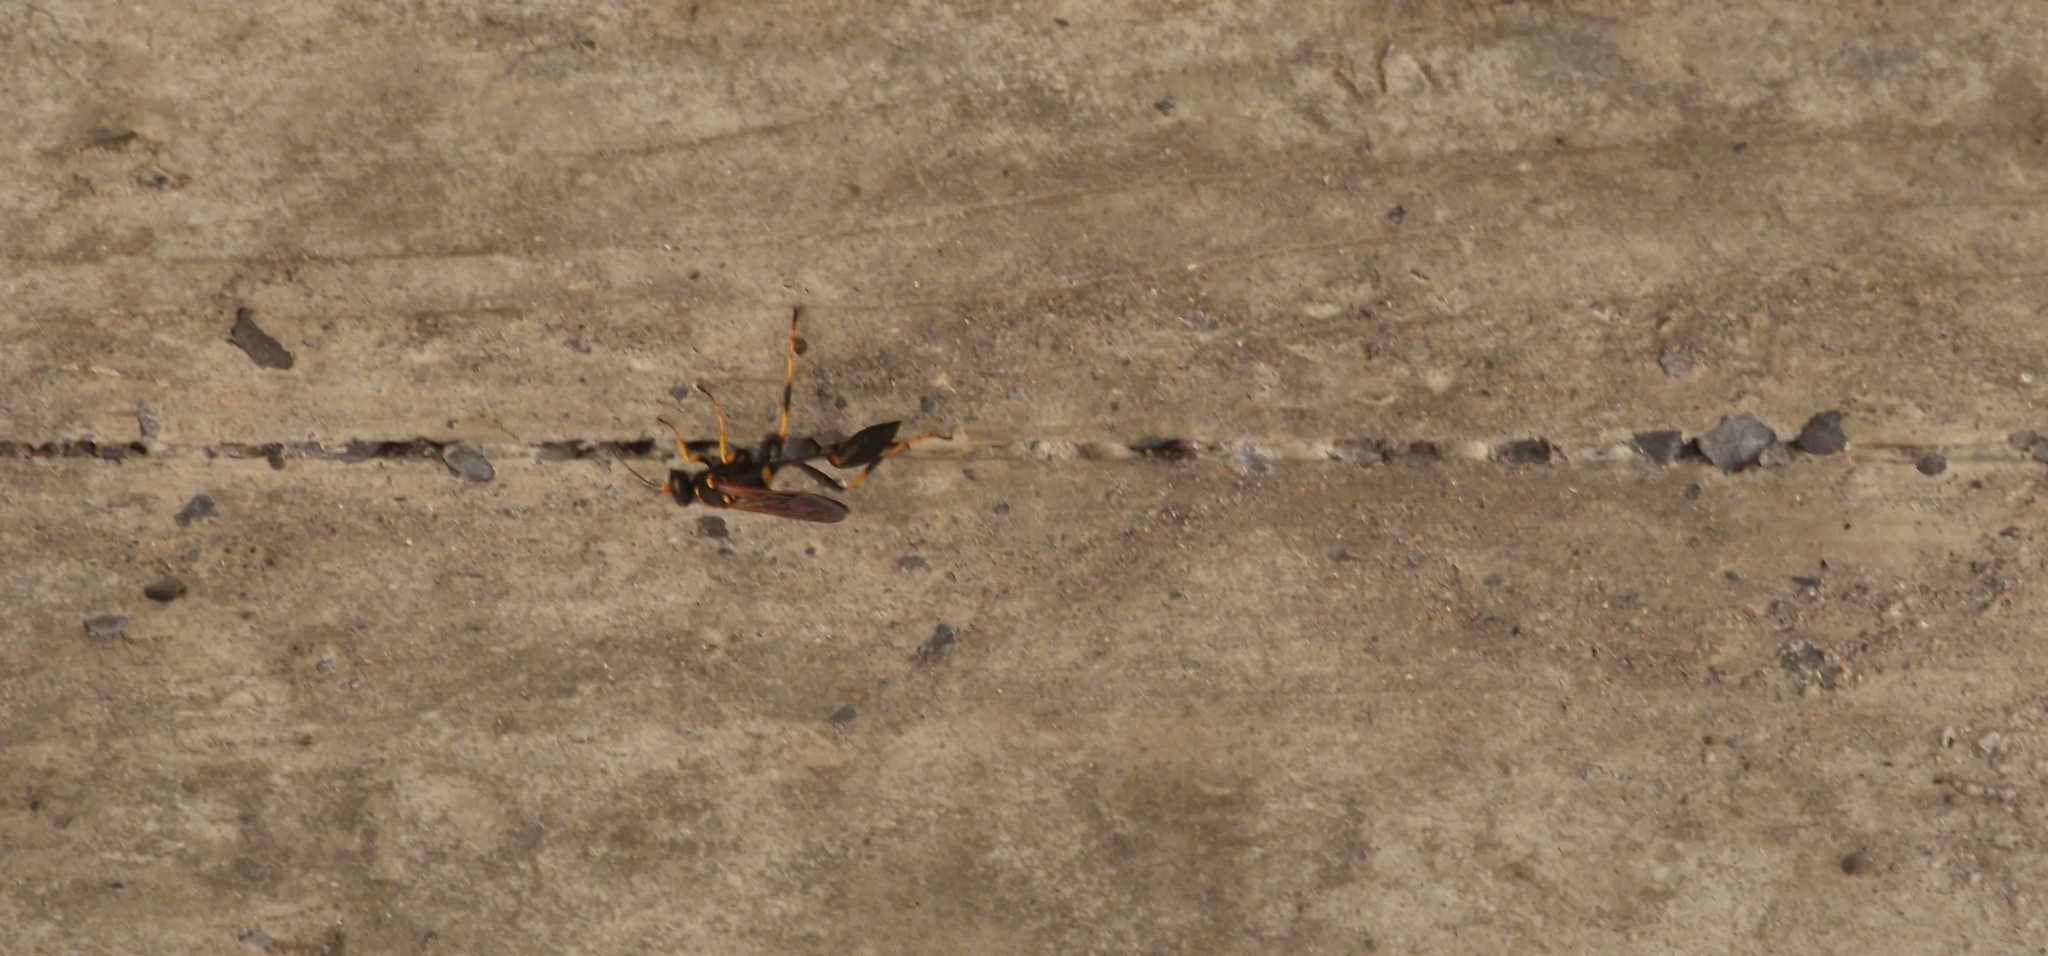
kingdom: Animalia
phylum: Arthropoda
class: Insecta
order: Hymenoptera
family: Sphecidae
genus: Sceliphron
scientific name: Sceliphron caementarium
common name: Mud dauber
